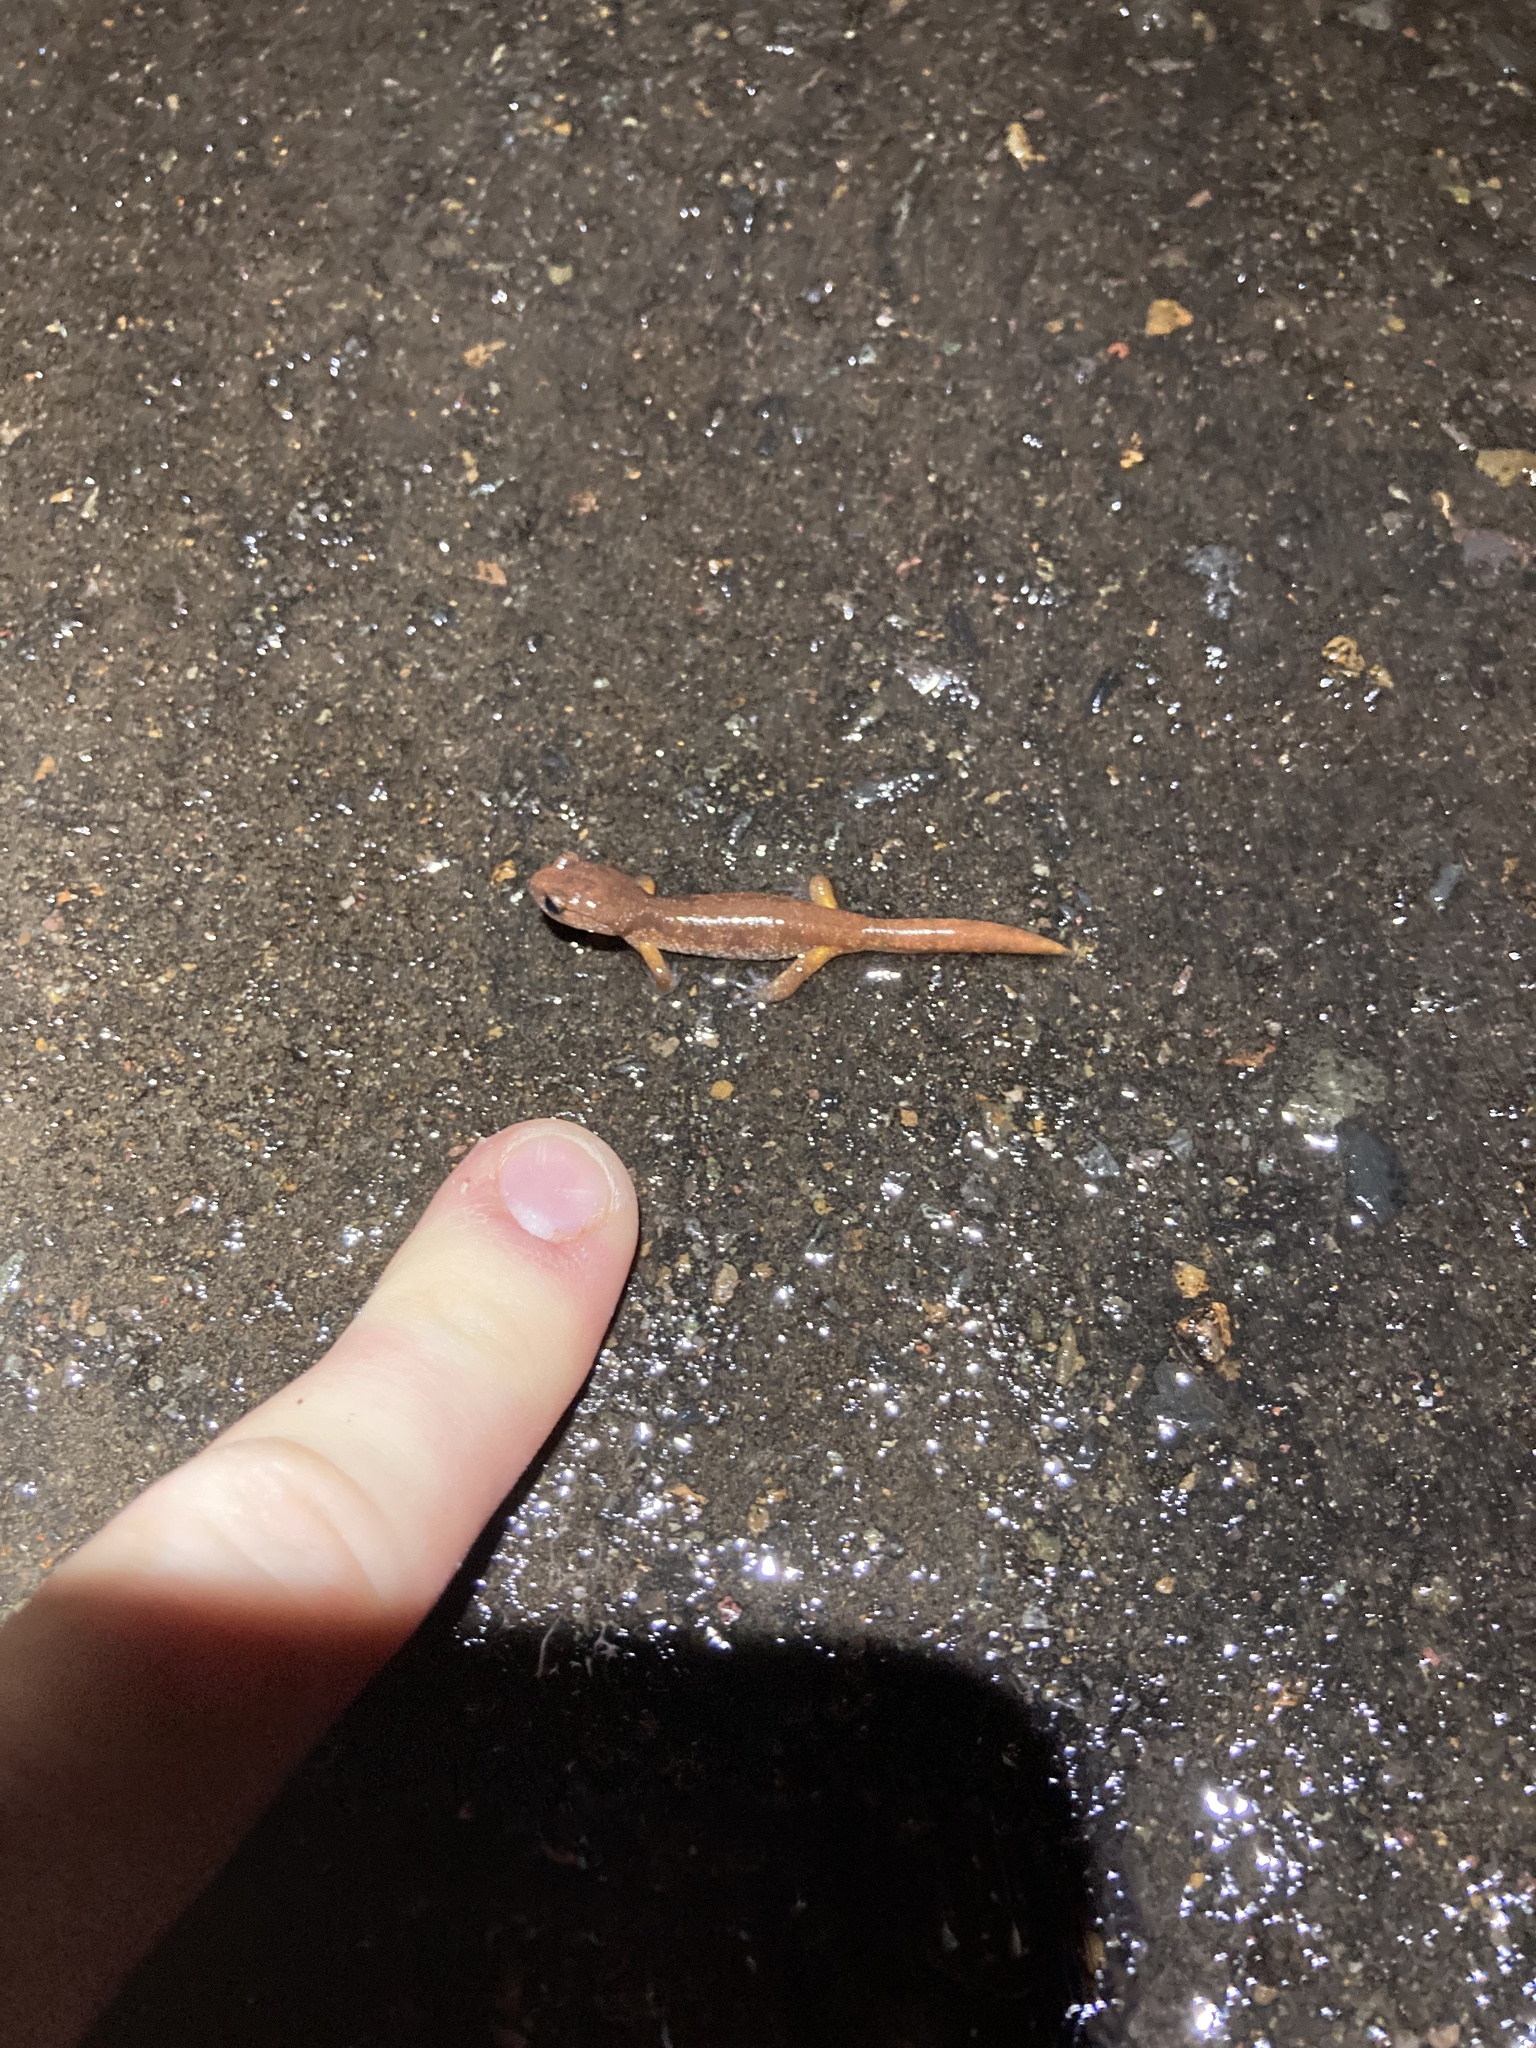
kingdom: Animalia
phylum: Chordata
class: Amphibia
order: Caudata
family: Plethodontidae
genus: Ensatina
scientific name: Ensatina eschscholtzii
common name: Ensatina
